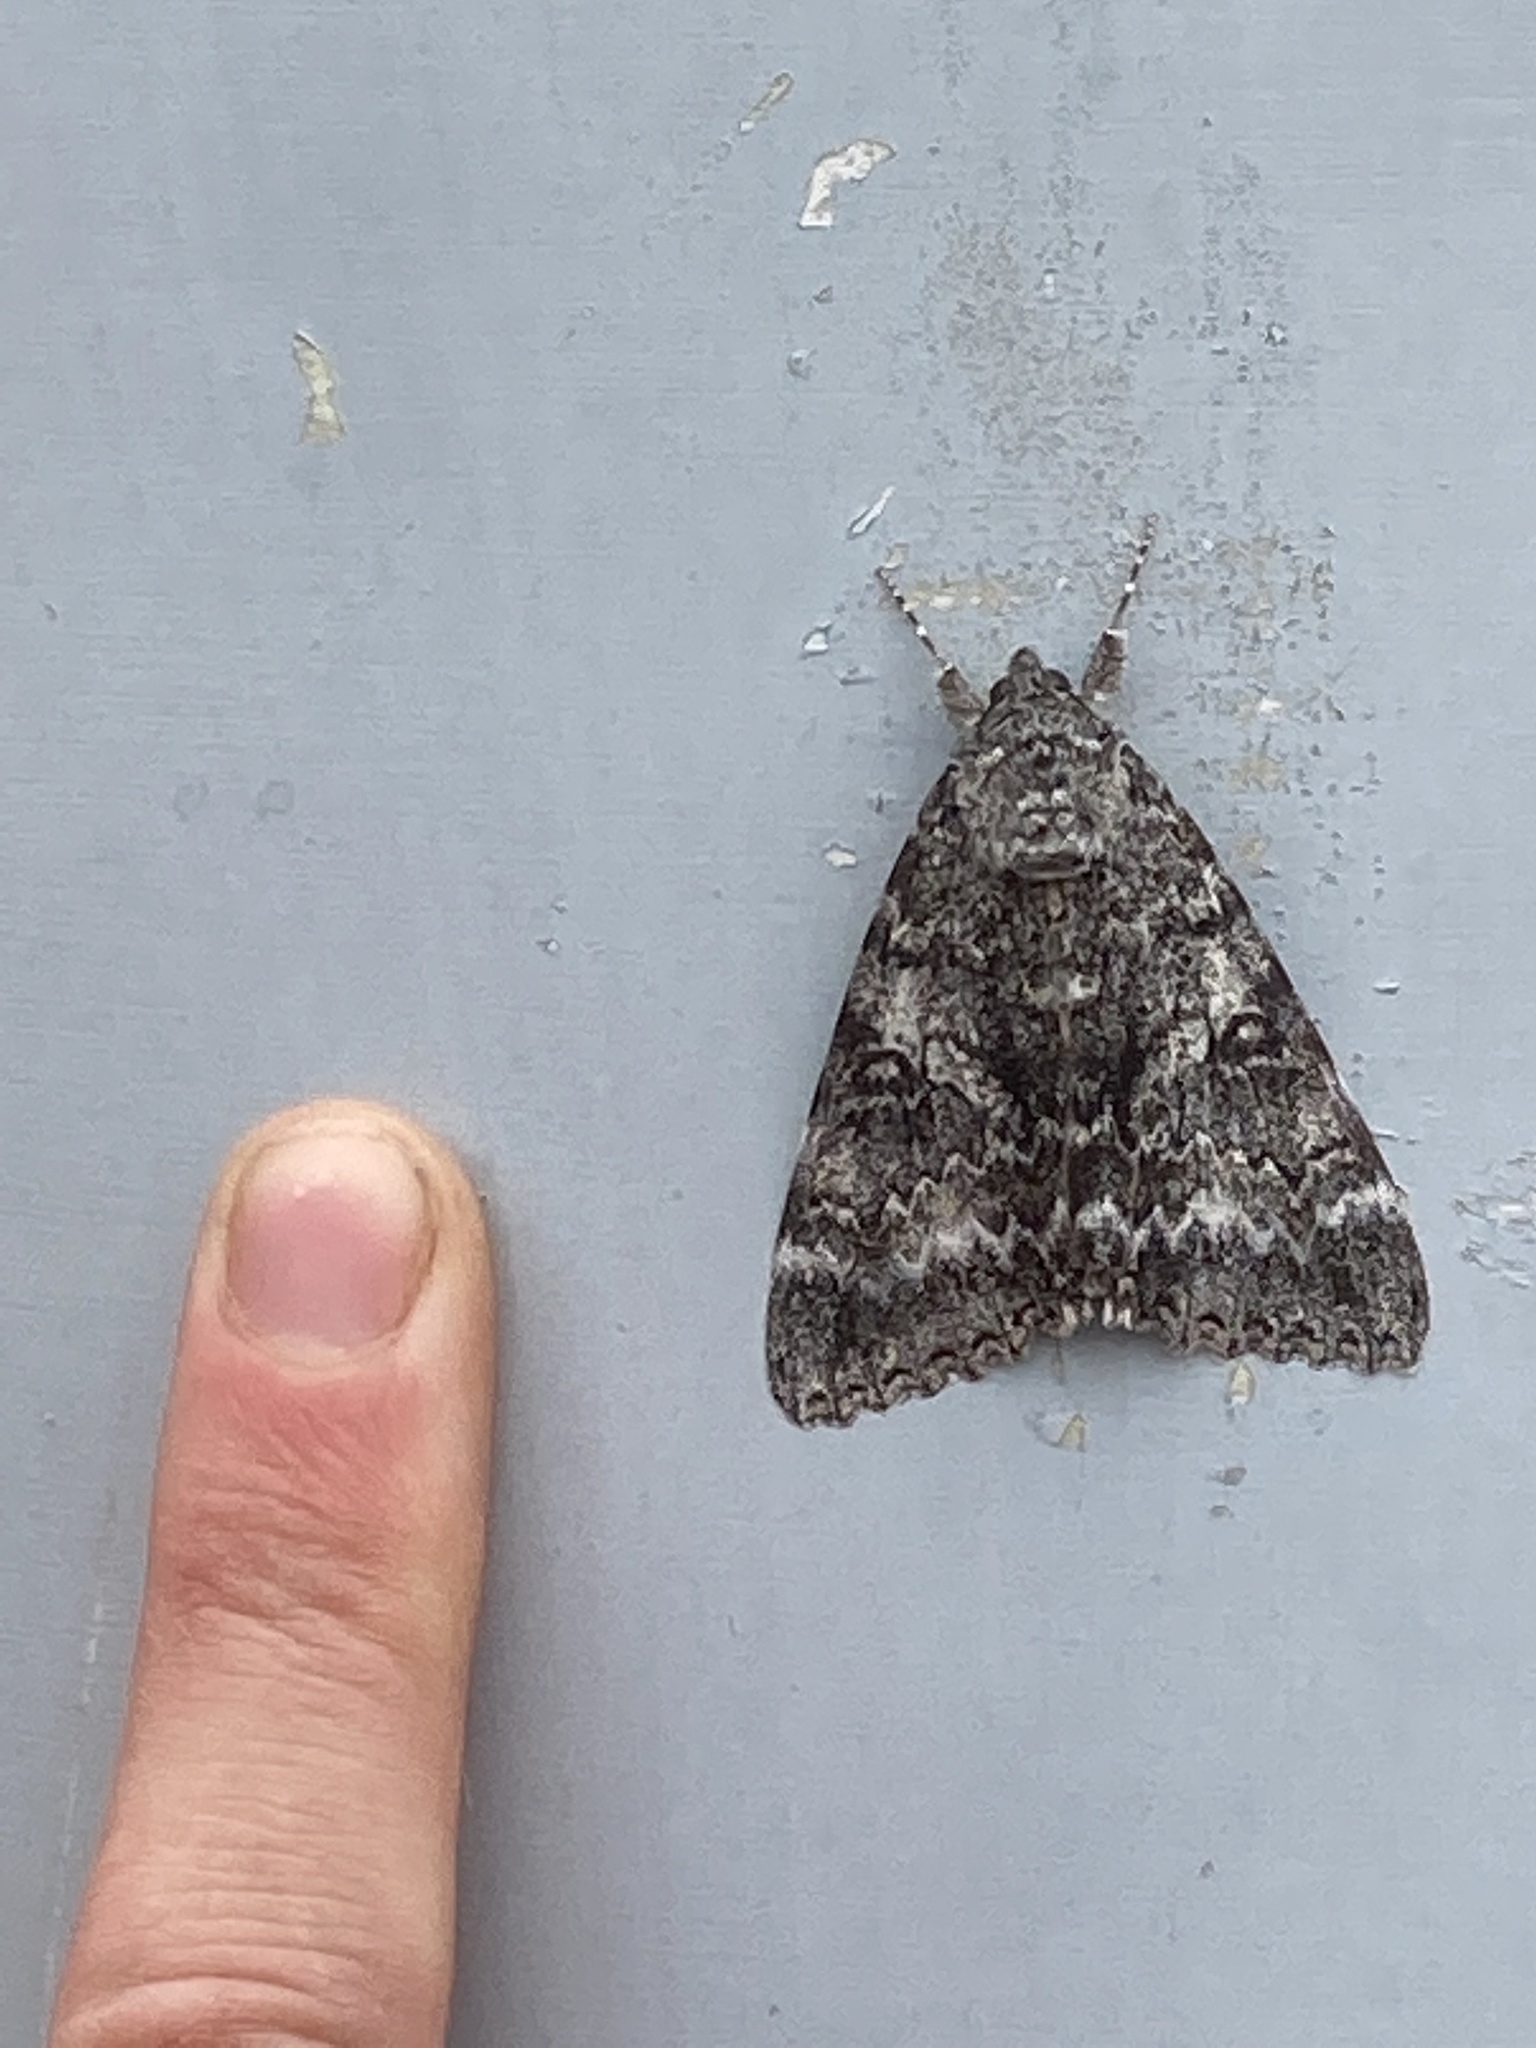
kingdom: Animalia
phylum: Arthropoda
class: Insecta
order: Lepidoptera
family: Erebidae
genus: Catocala
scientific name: Catocala unijuga
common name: Once-married underwing
